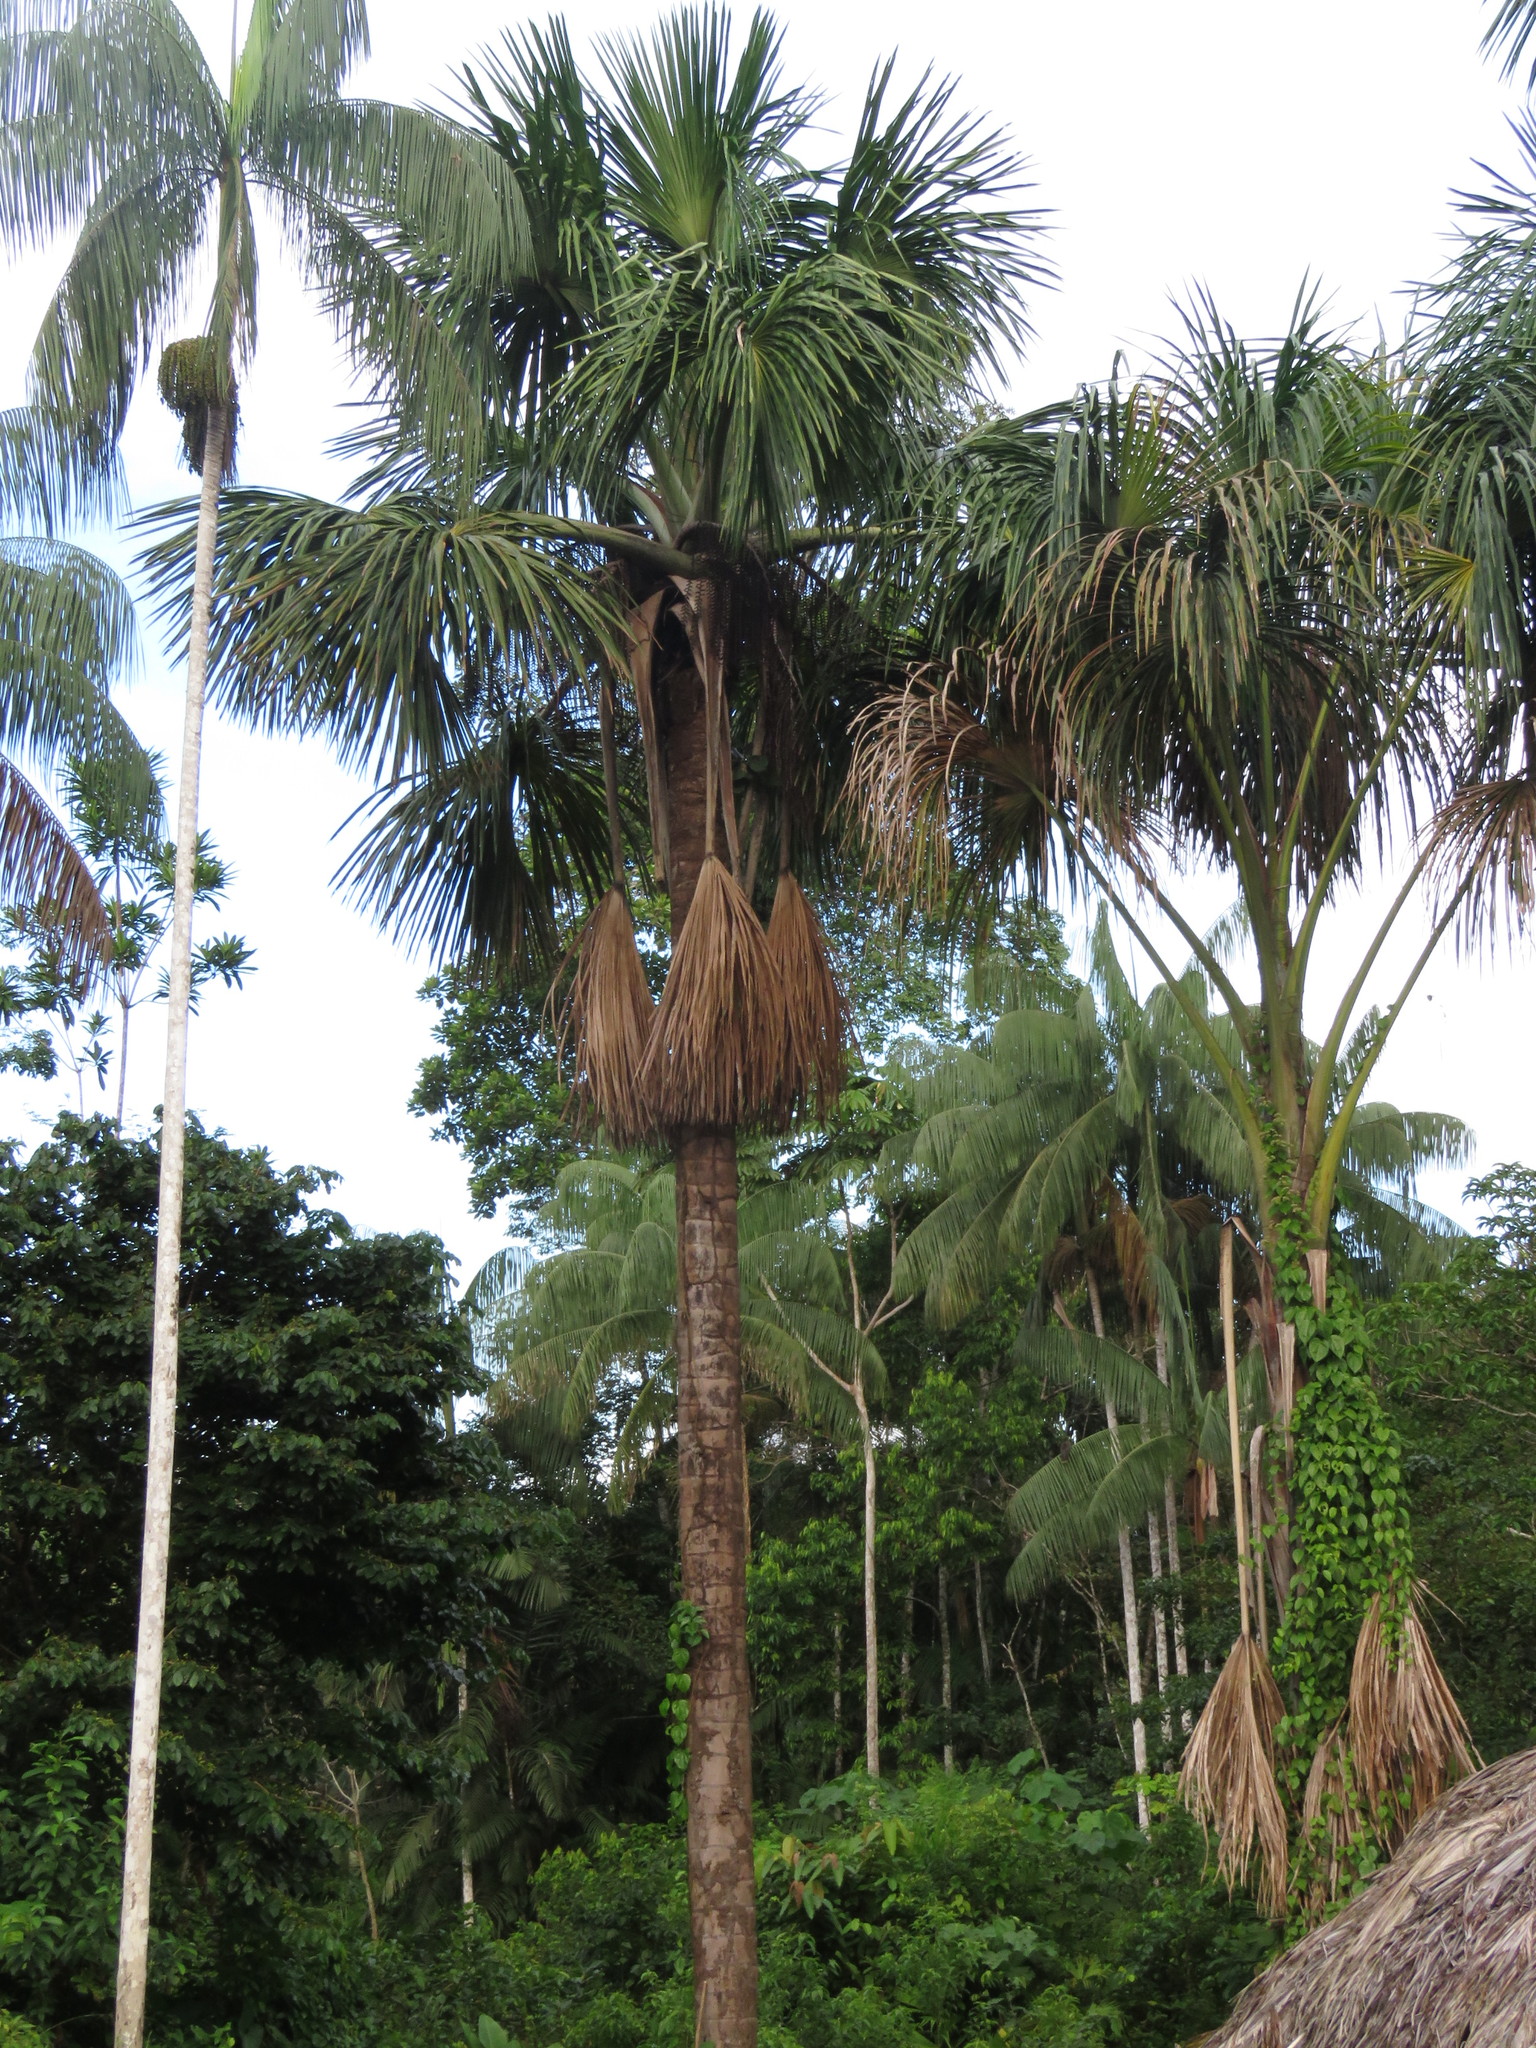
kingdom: Plantae
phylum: Tracheophyta
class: Liliopsida
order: Arecales
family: Arecaceae
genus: Mauritia
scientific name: Mauritia flexuosa
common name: Tree-of-life
